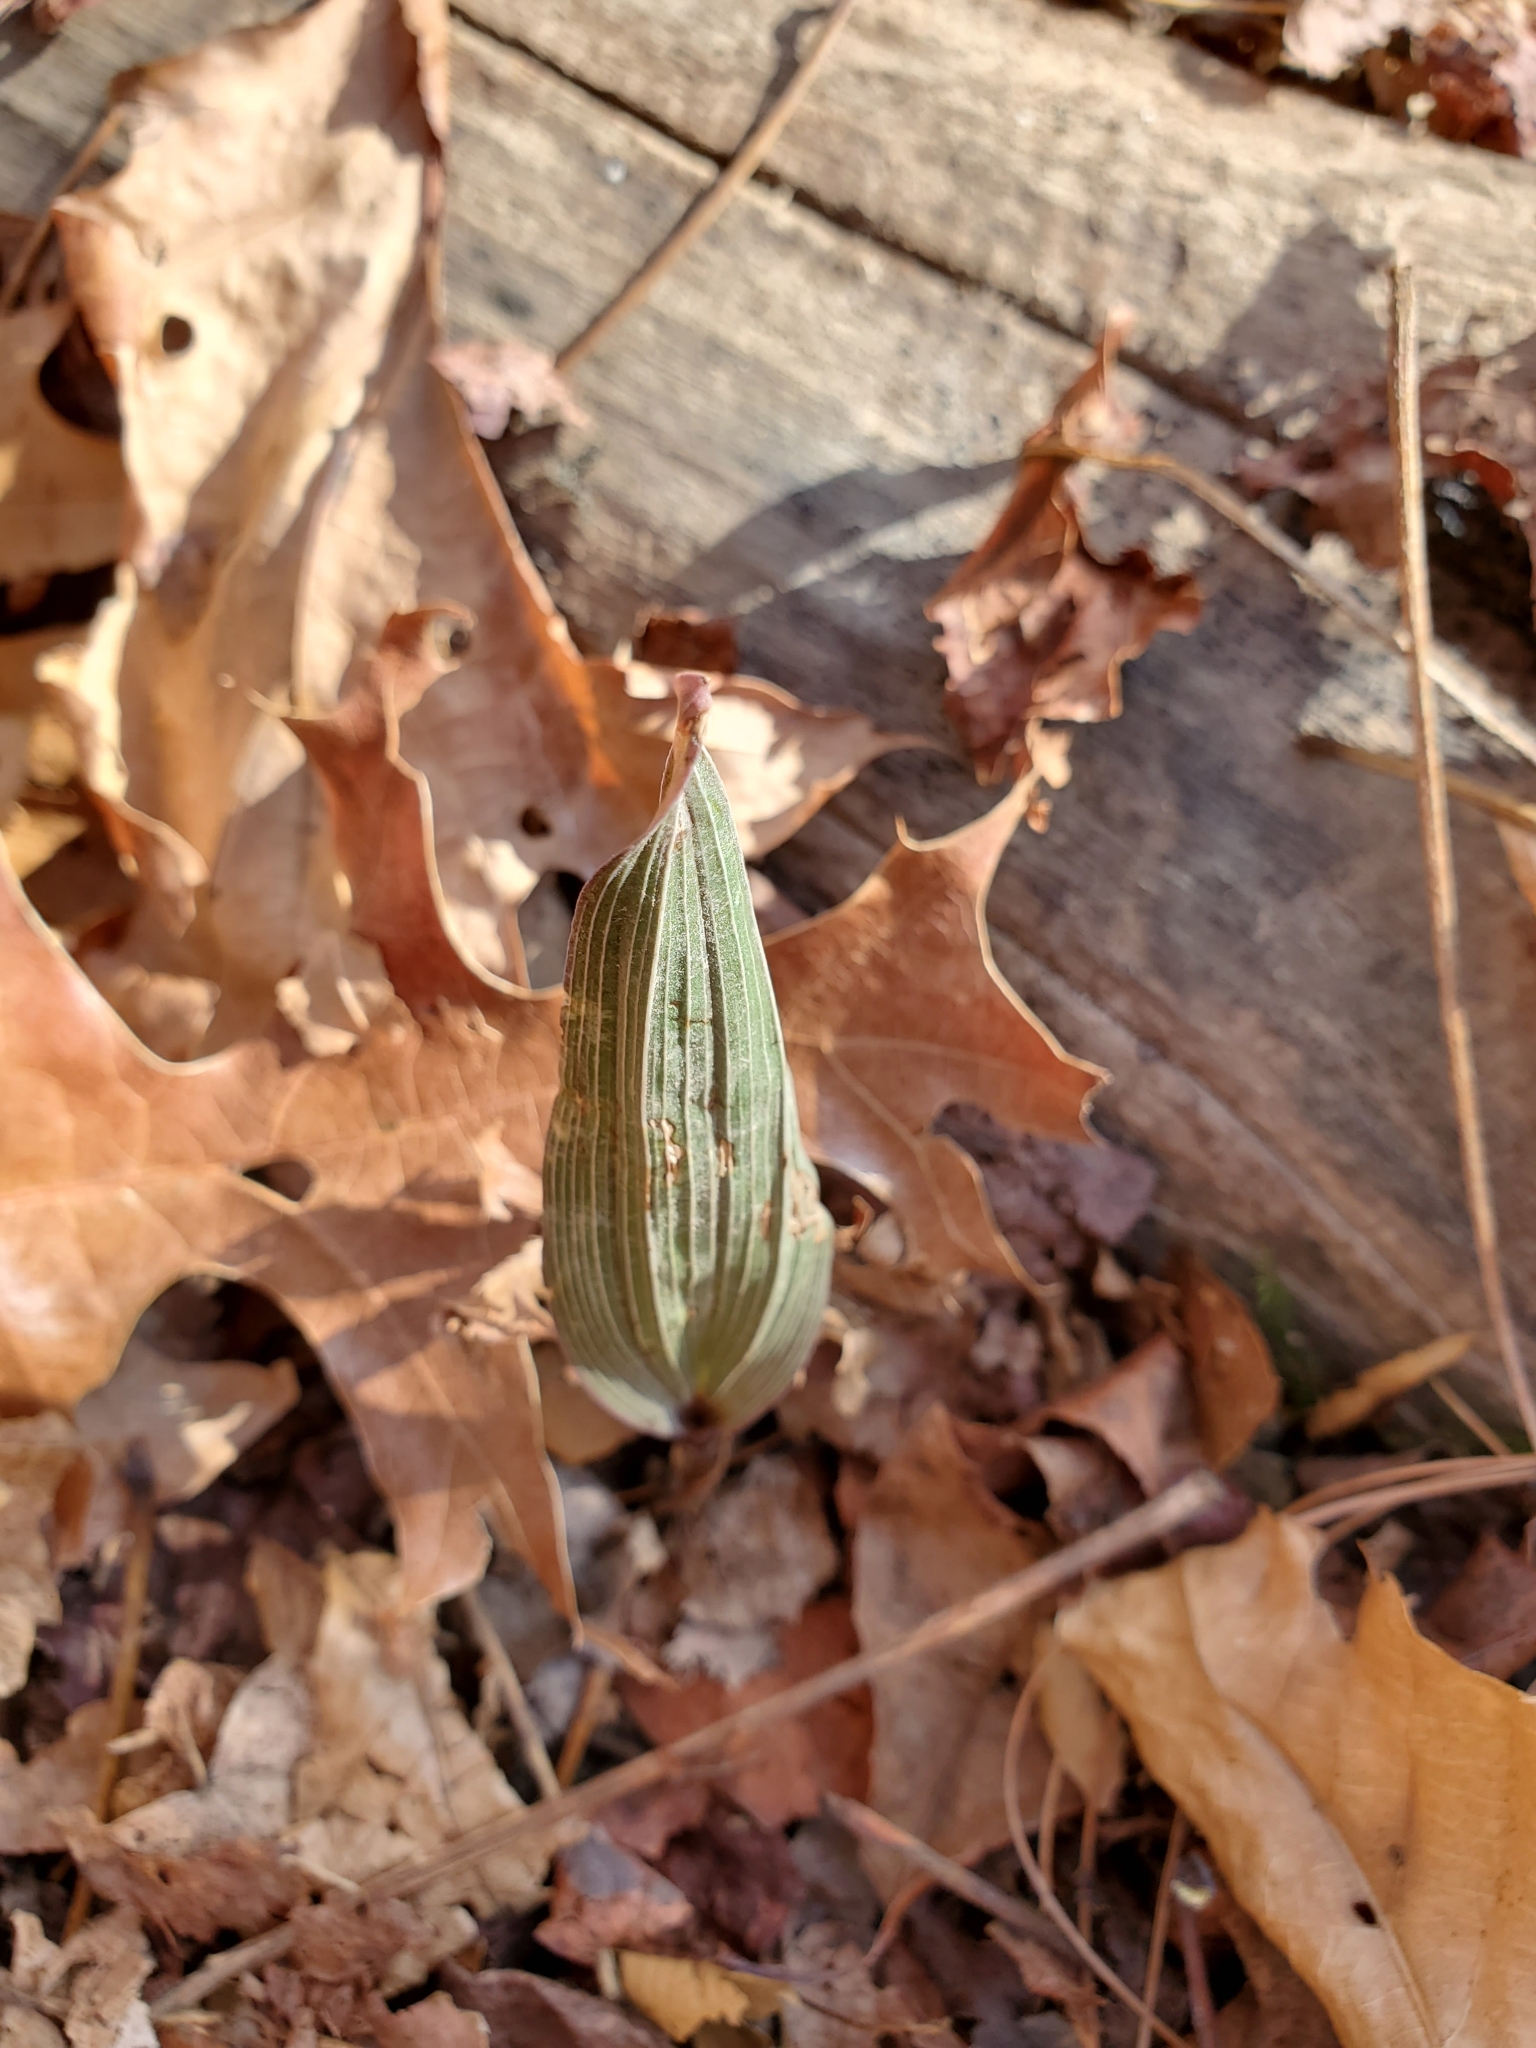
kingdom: Plantae
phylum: Tracheophyta
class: Liliopsida
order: Asparagales
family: Orchidaceae
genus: Aplectrum
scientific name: Aplectrum hyemale
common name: Adam-and-eve
